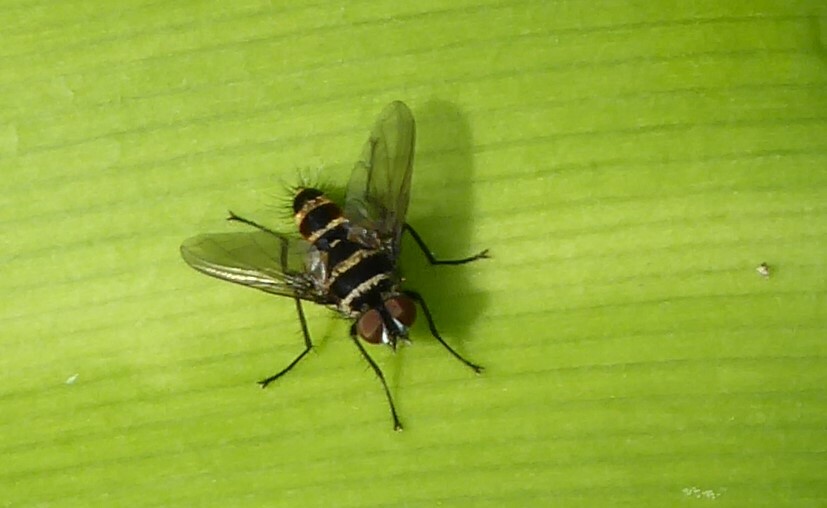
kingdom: Animalia
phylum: Arthropoda
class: Insecta
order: Diptera
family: Tachinidae
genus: Trigonospila
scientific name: Trigonospila brevifacies
